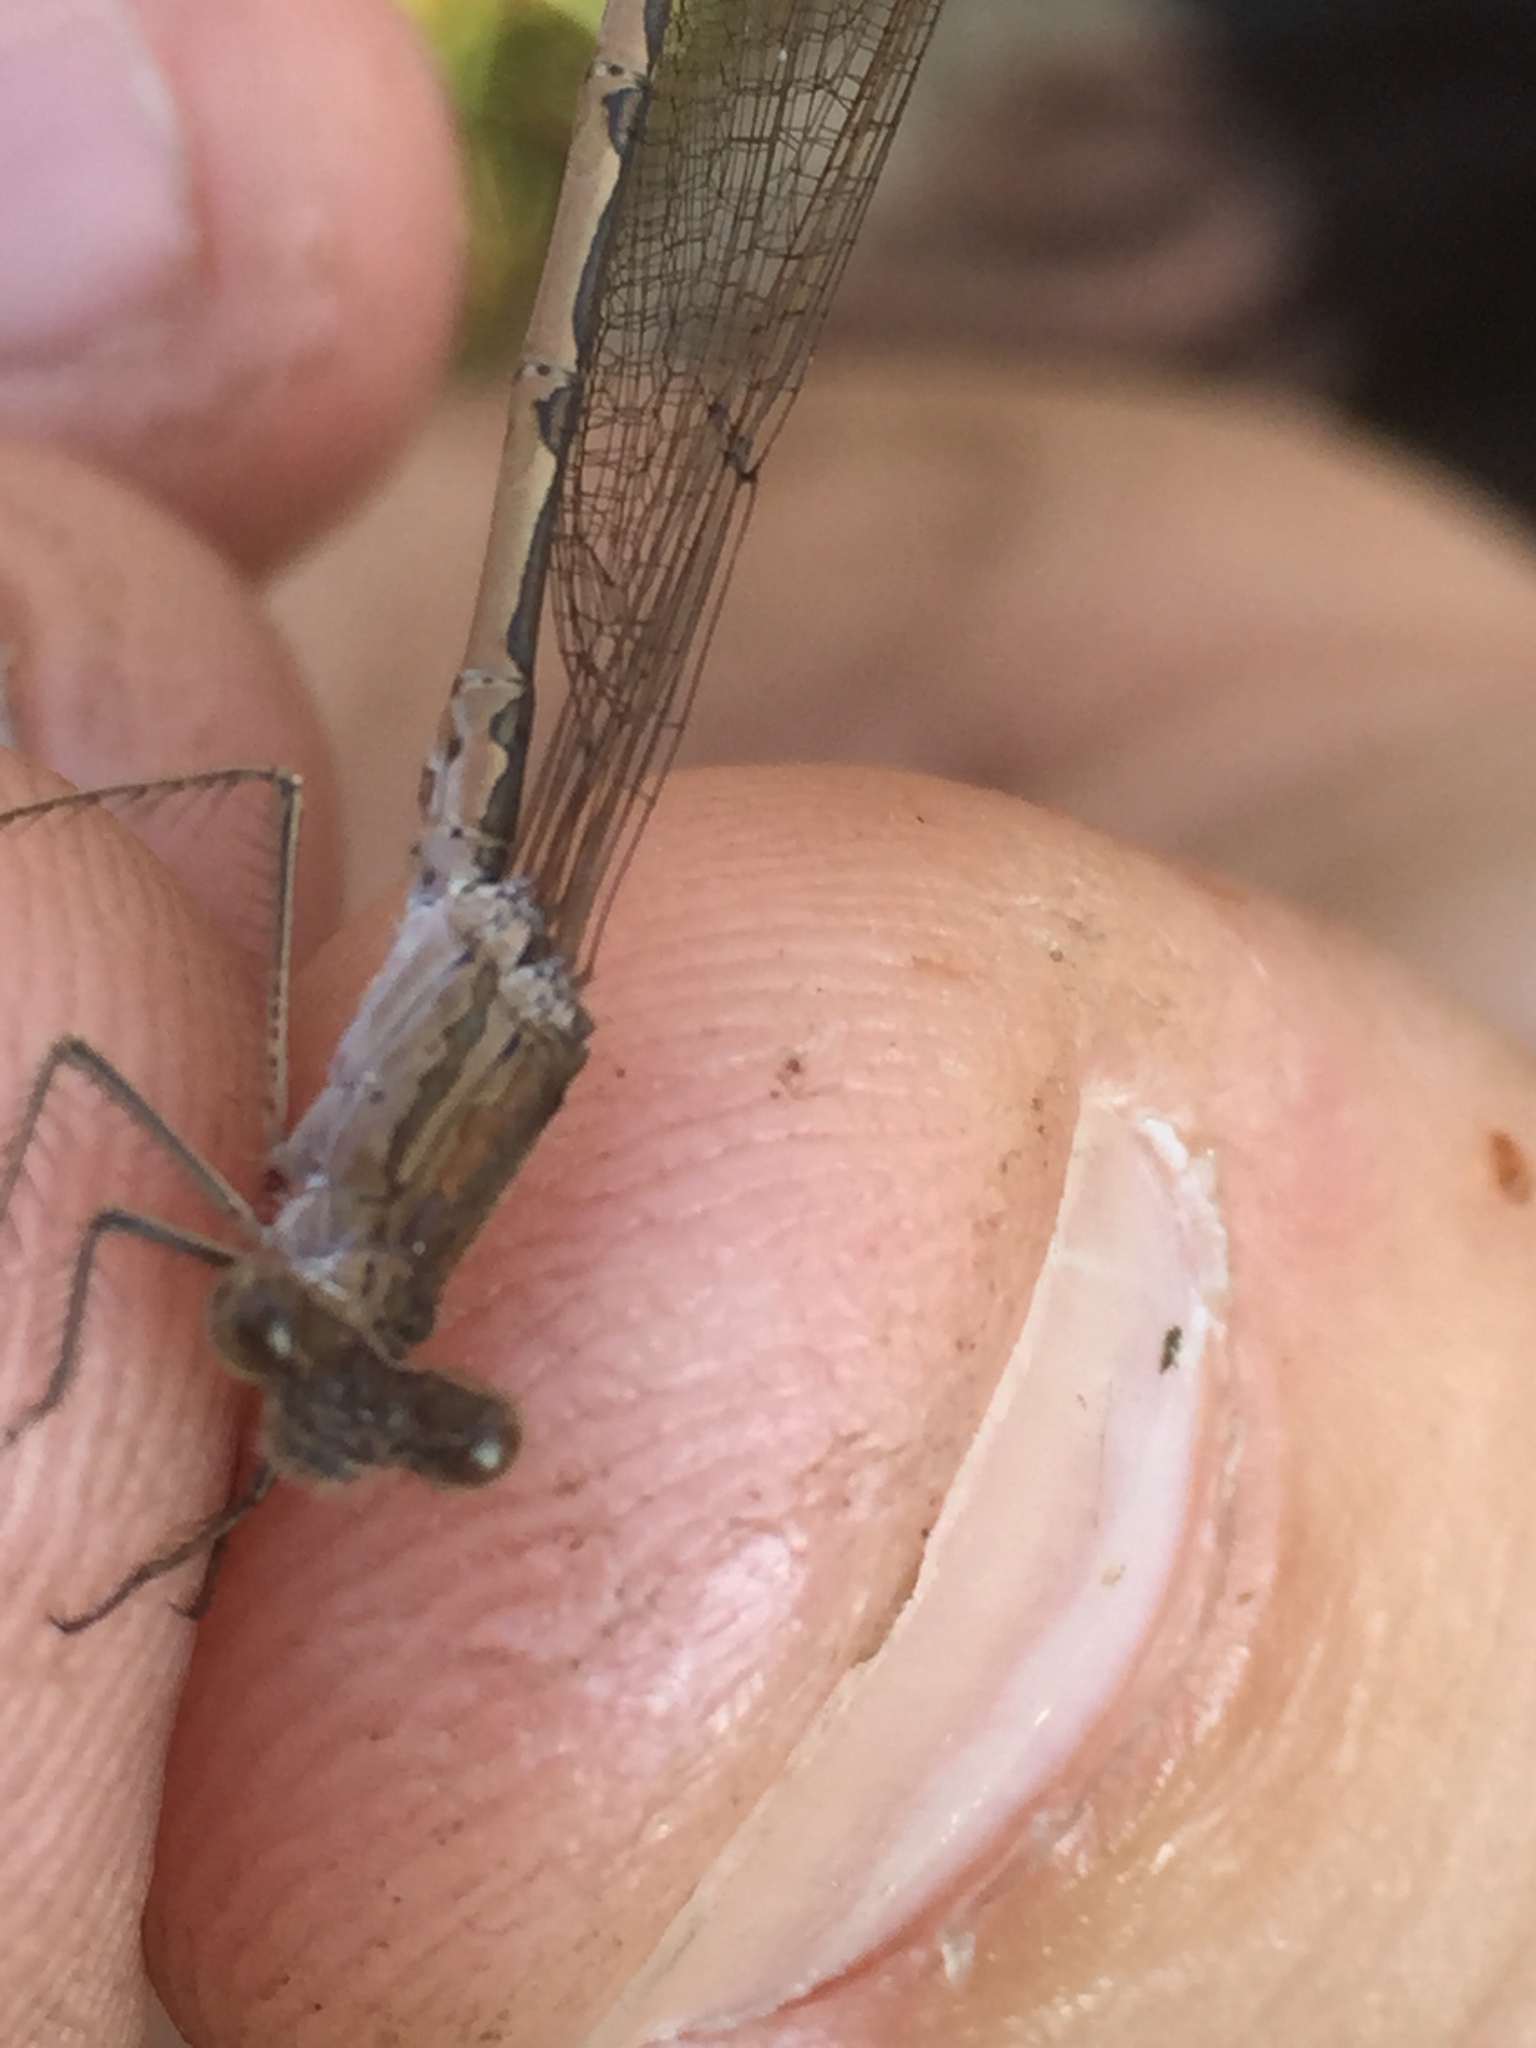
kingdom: Animalia
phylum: Arthropoda
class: Insecta
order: Odonata
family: Lestidae
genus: Sympecma
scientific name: Sympecma paedisca
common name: Siberian winter damsel
